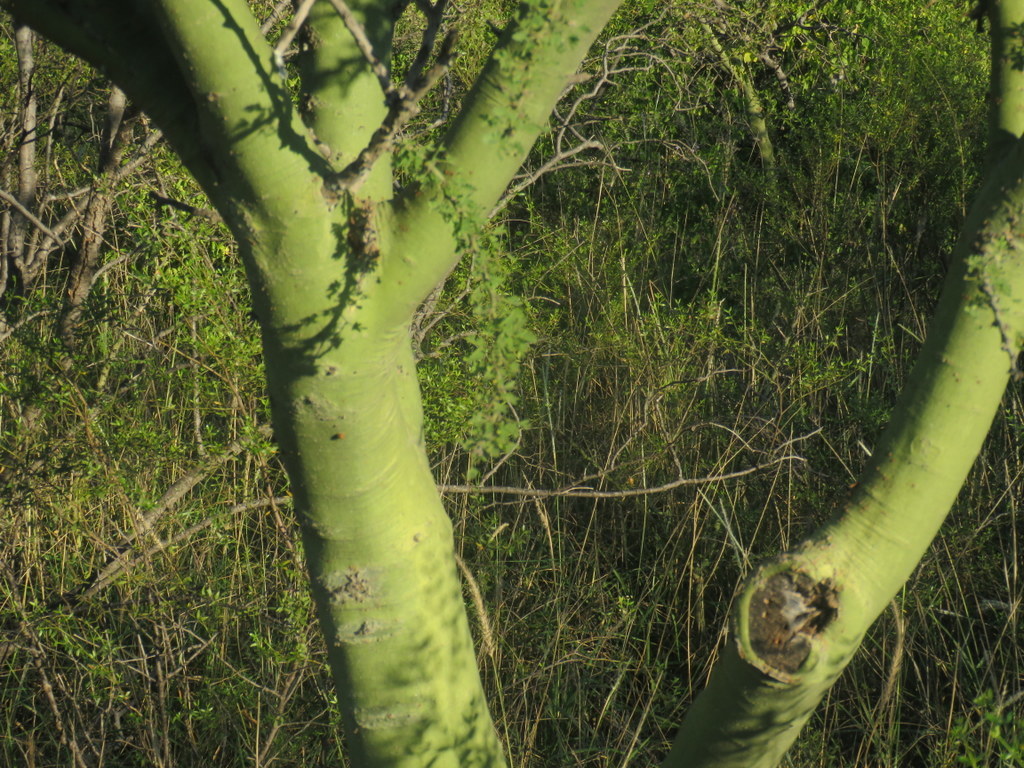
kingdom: Plantae
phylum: Tracheophyta
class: Magnoliopsida
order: Fabales
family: Fabaceae
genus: Parkinsonia
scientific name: Parkinsonia praecox
